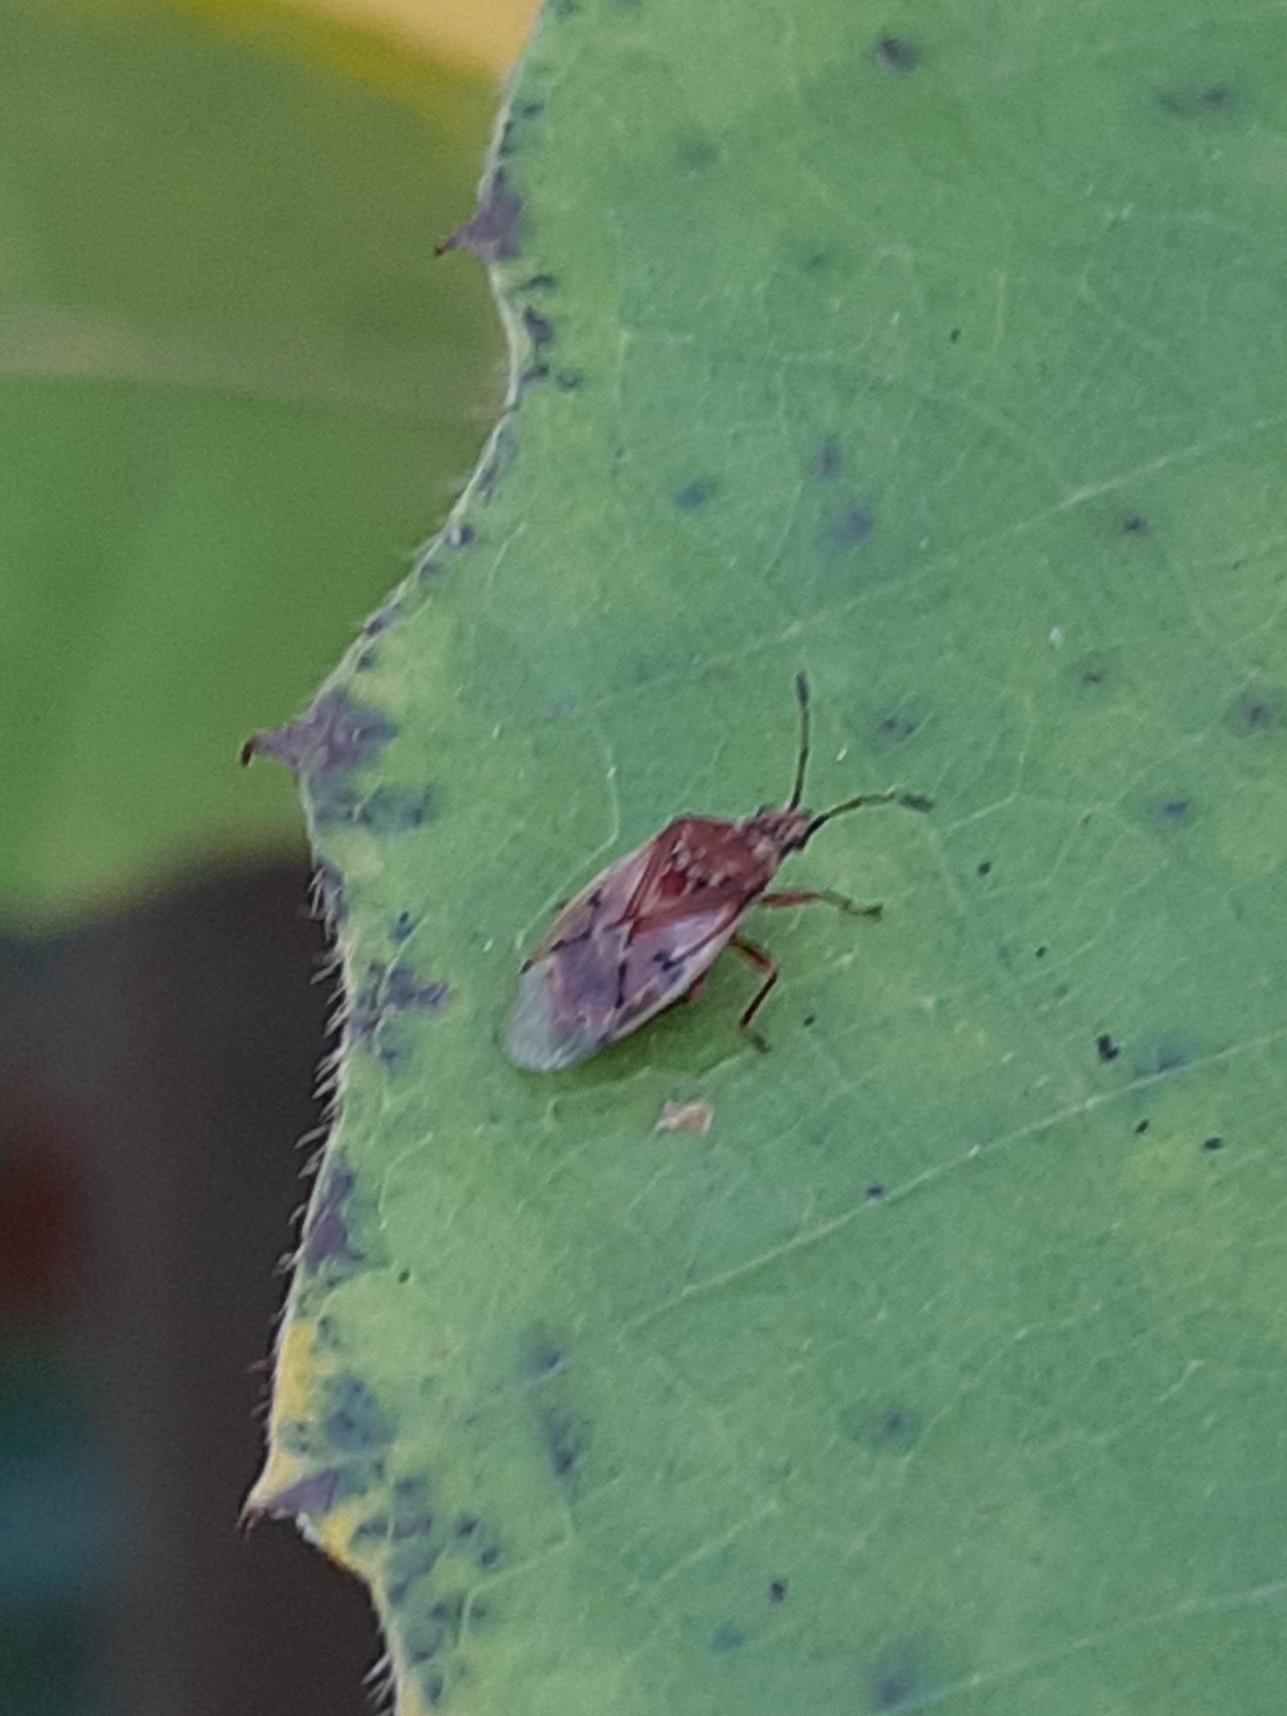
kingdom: Animalia
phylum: Arthropoda
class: Insecta
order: Hemiptera
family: Lygaeidae
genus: Kleidocerys
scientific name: Kleidocerys resedae
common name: Birch catkin bug
